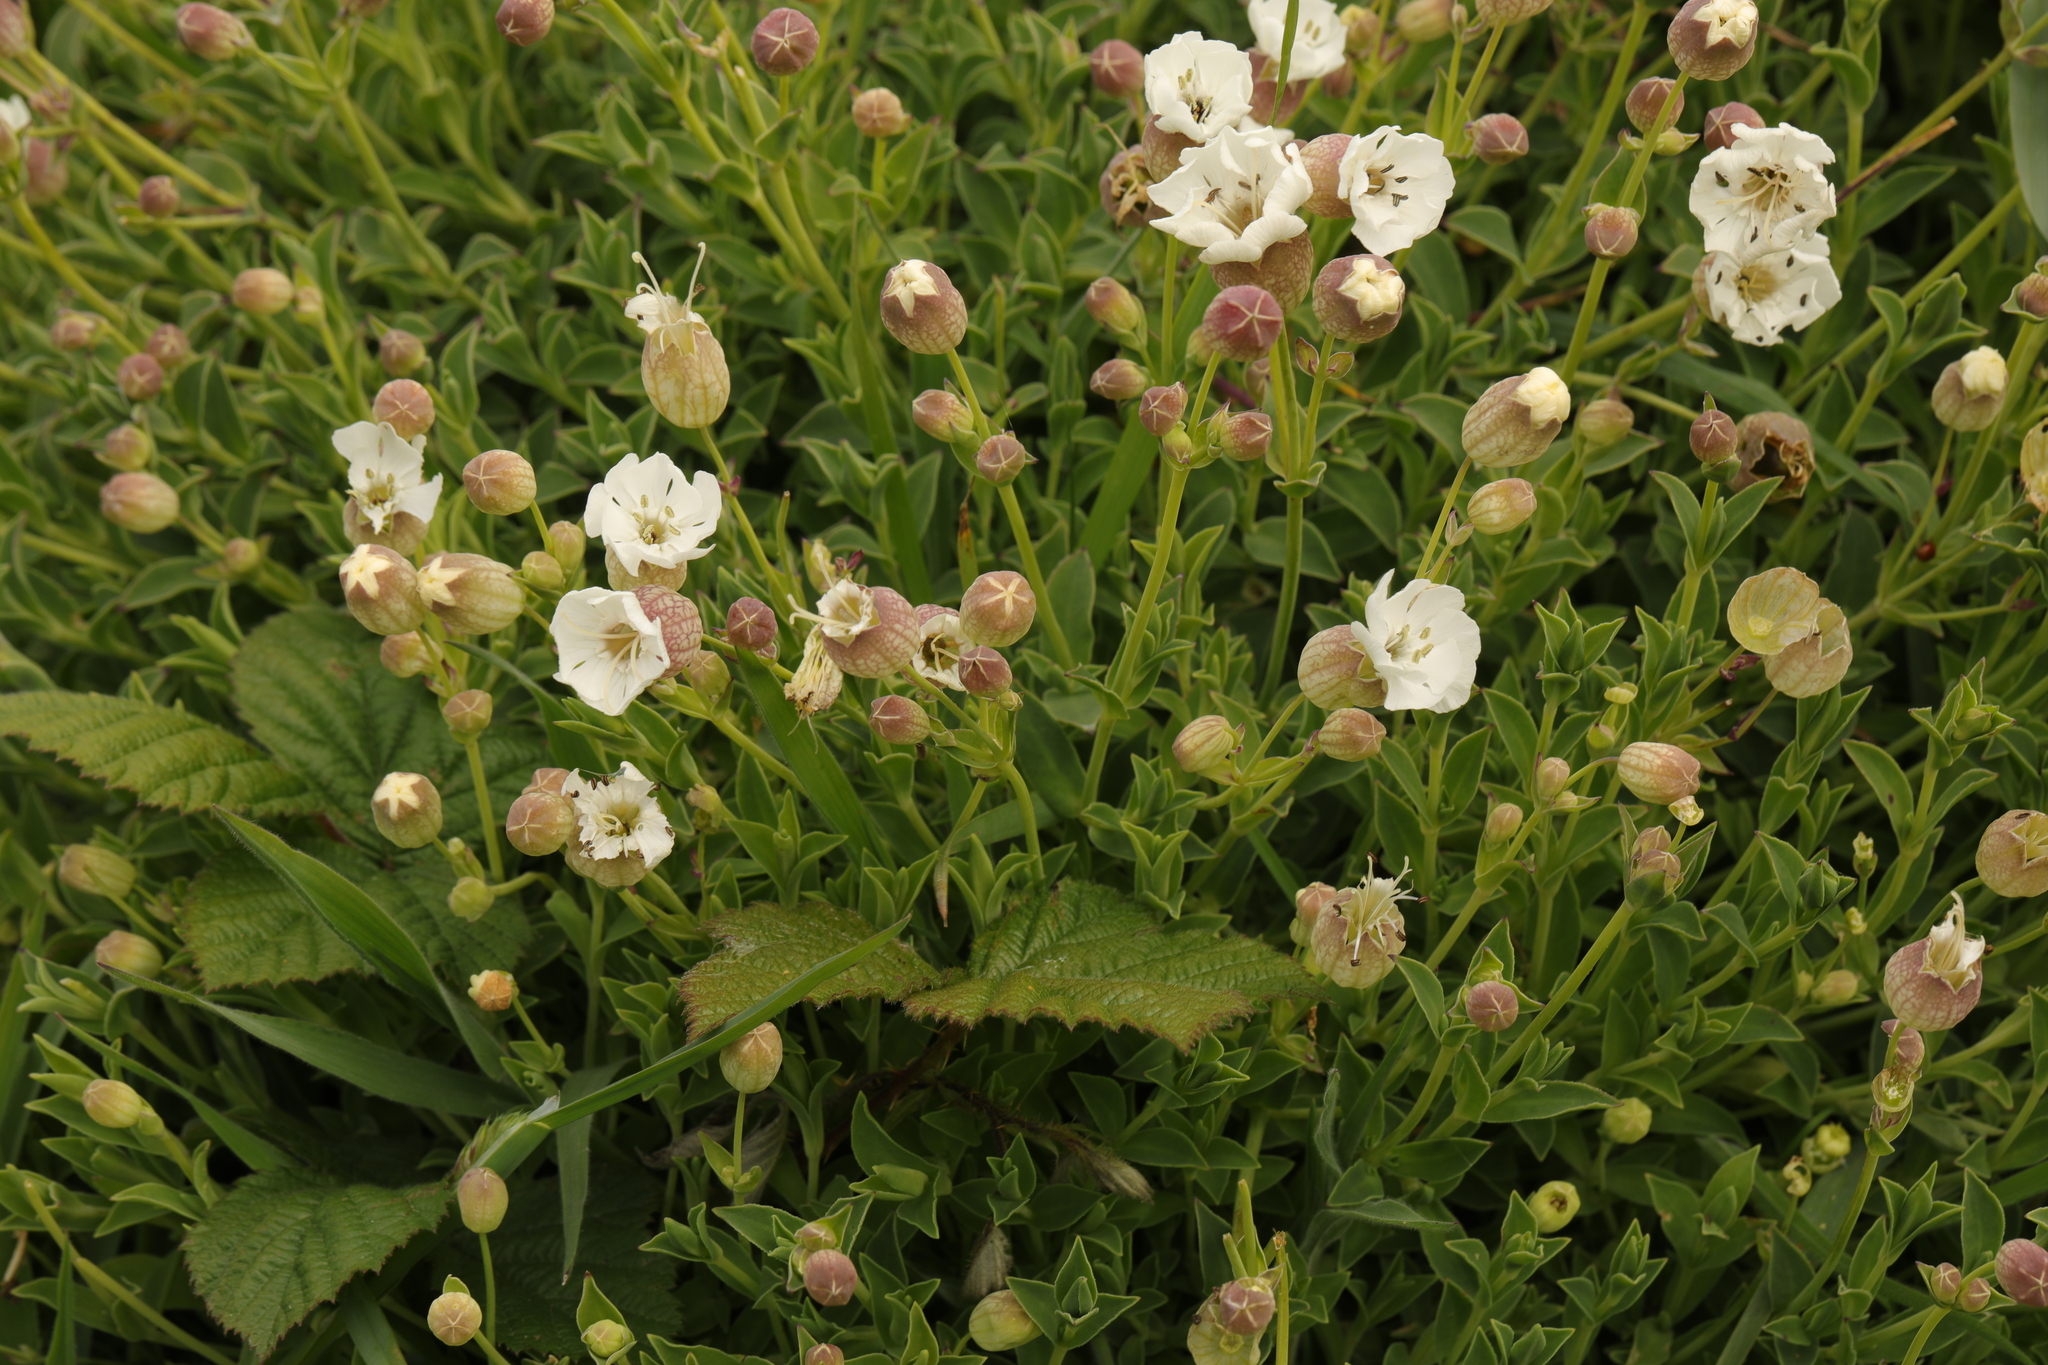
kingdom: Plantae
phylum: Tracheophyta
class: Magnoliopsida
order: Caryophyllales
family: Caryophyllaceae
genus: Silene
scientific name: Silene uniflora
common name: Sea campion
